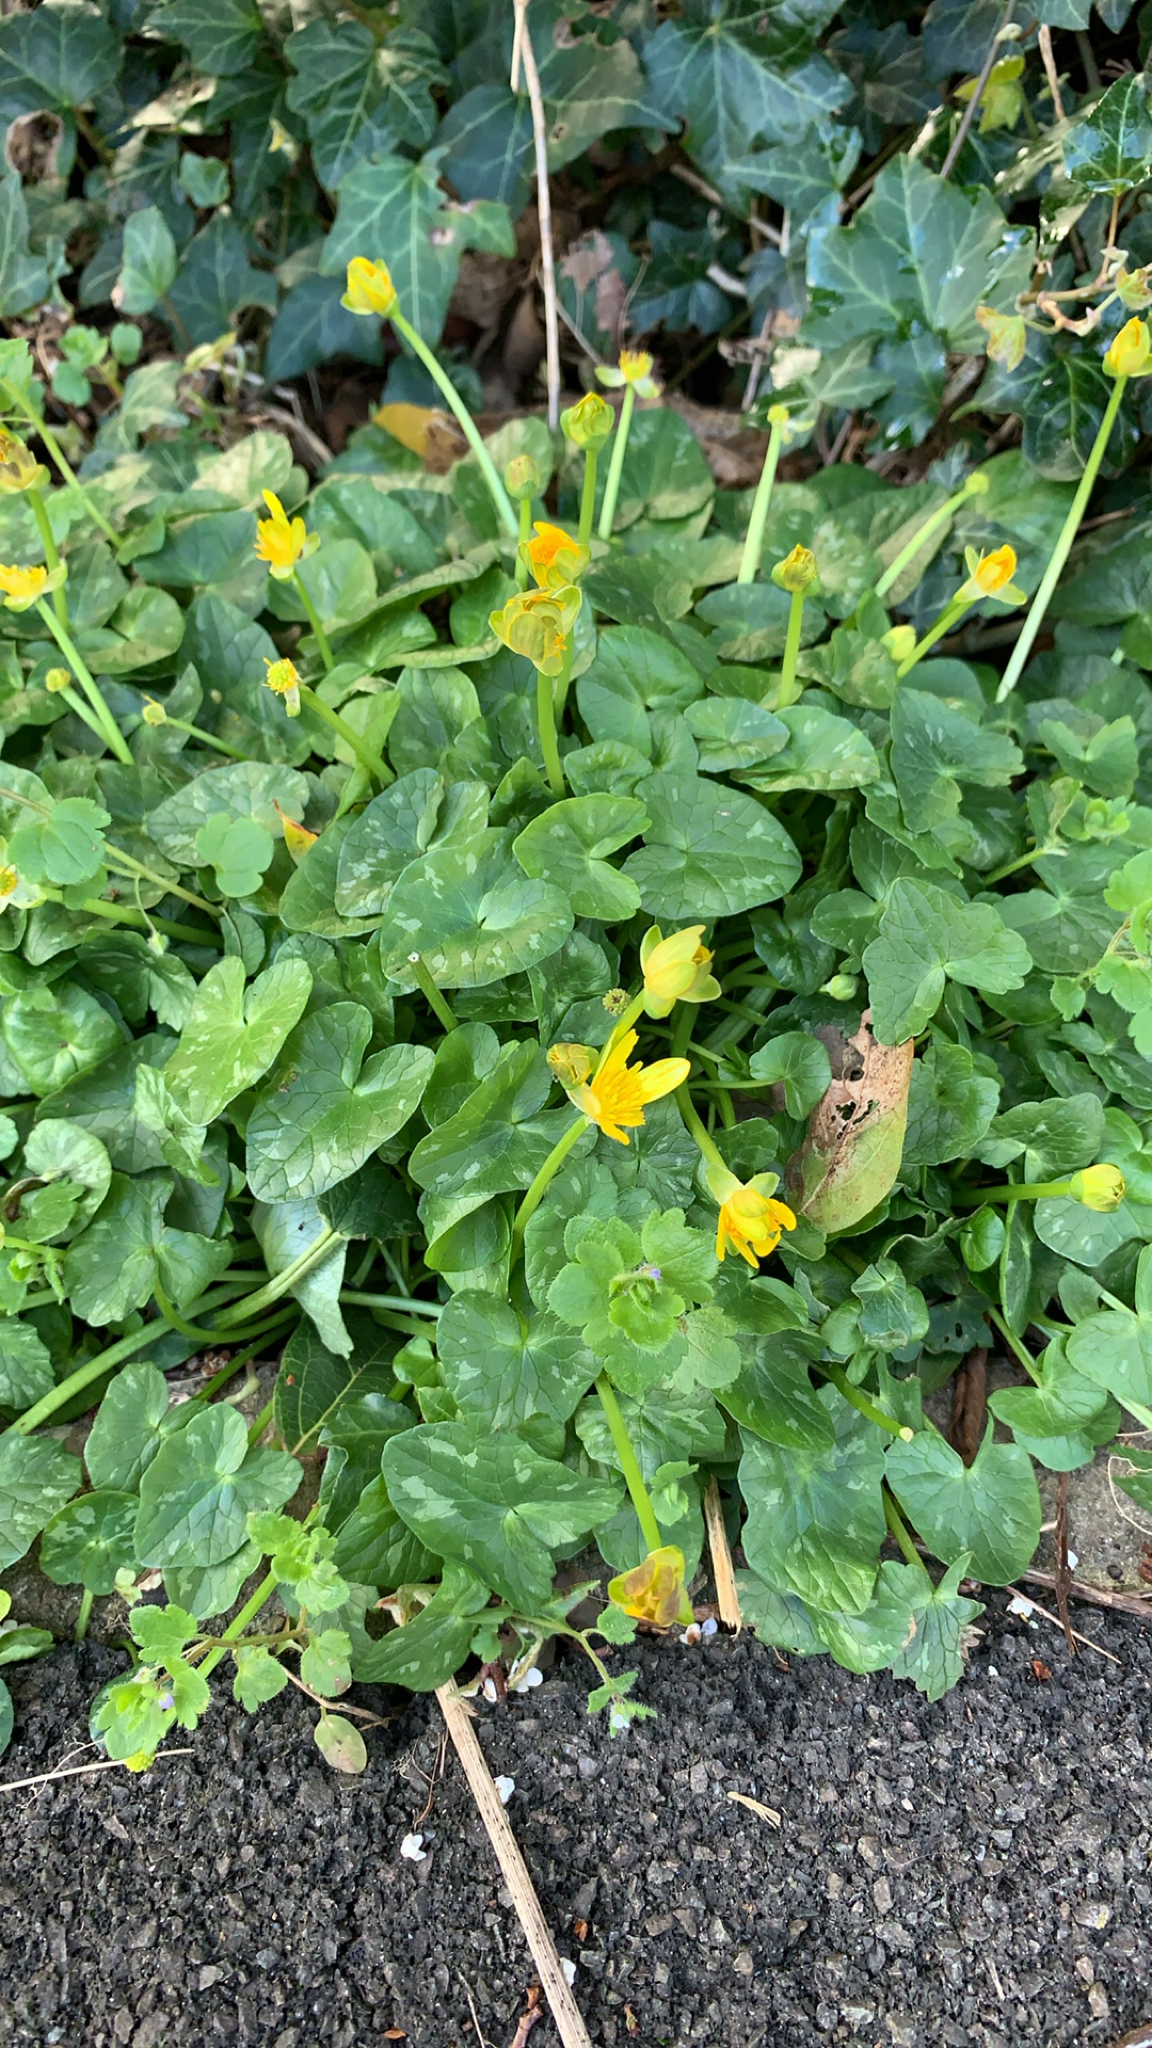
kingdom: Plantae
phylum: Tracheophyta
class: Magnoliopsida
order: Ranunculales
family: Ranunculaceae
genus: Ficaria
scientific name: Ficaria verna
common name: Lesser celandine
